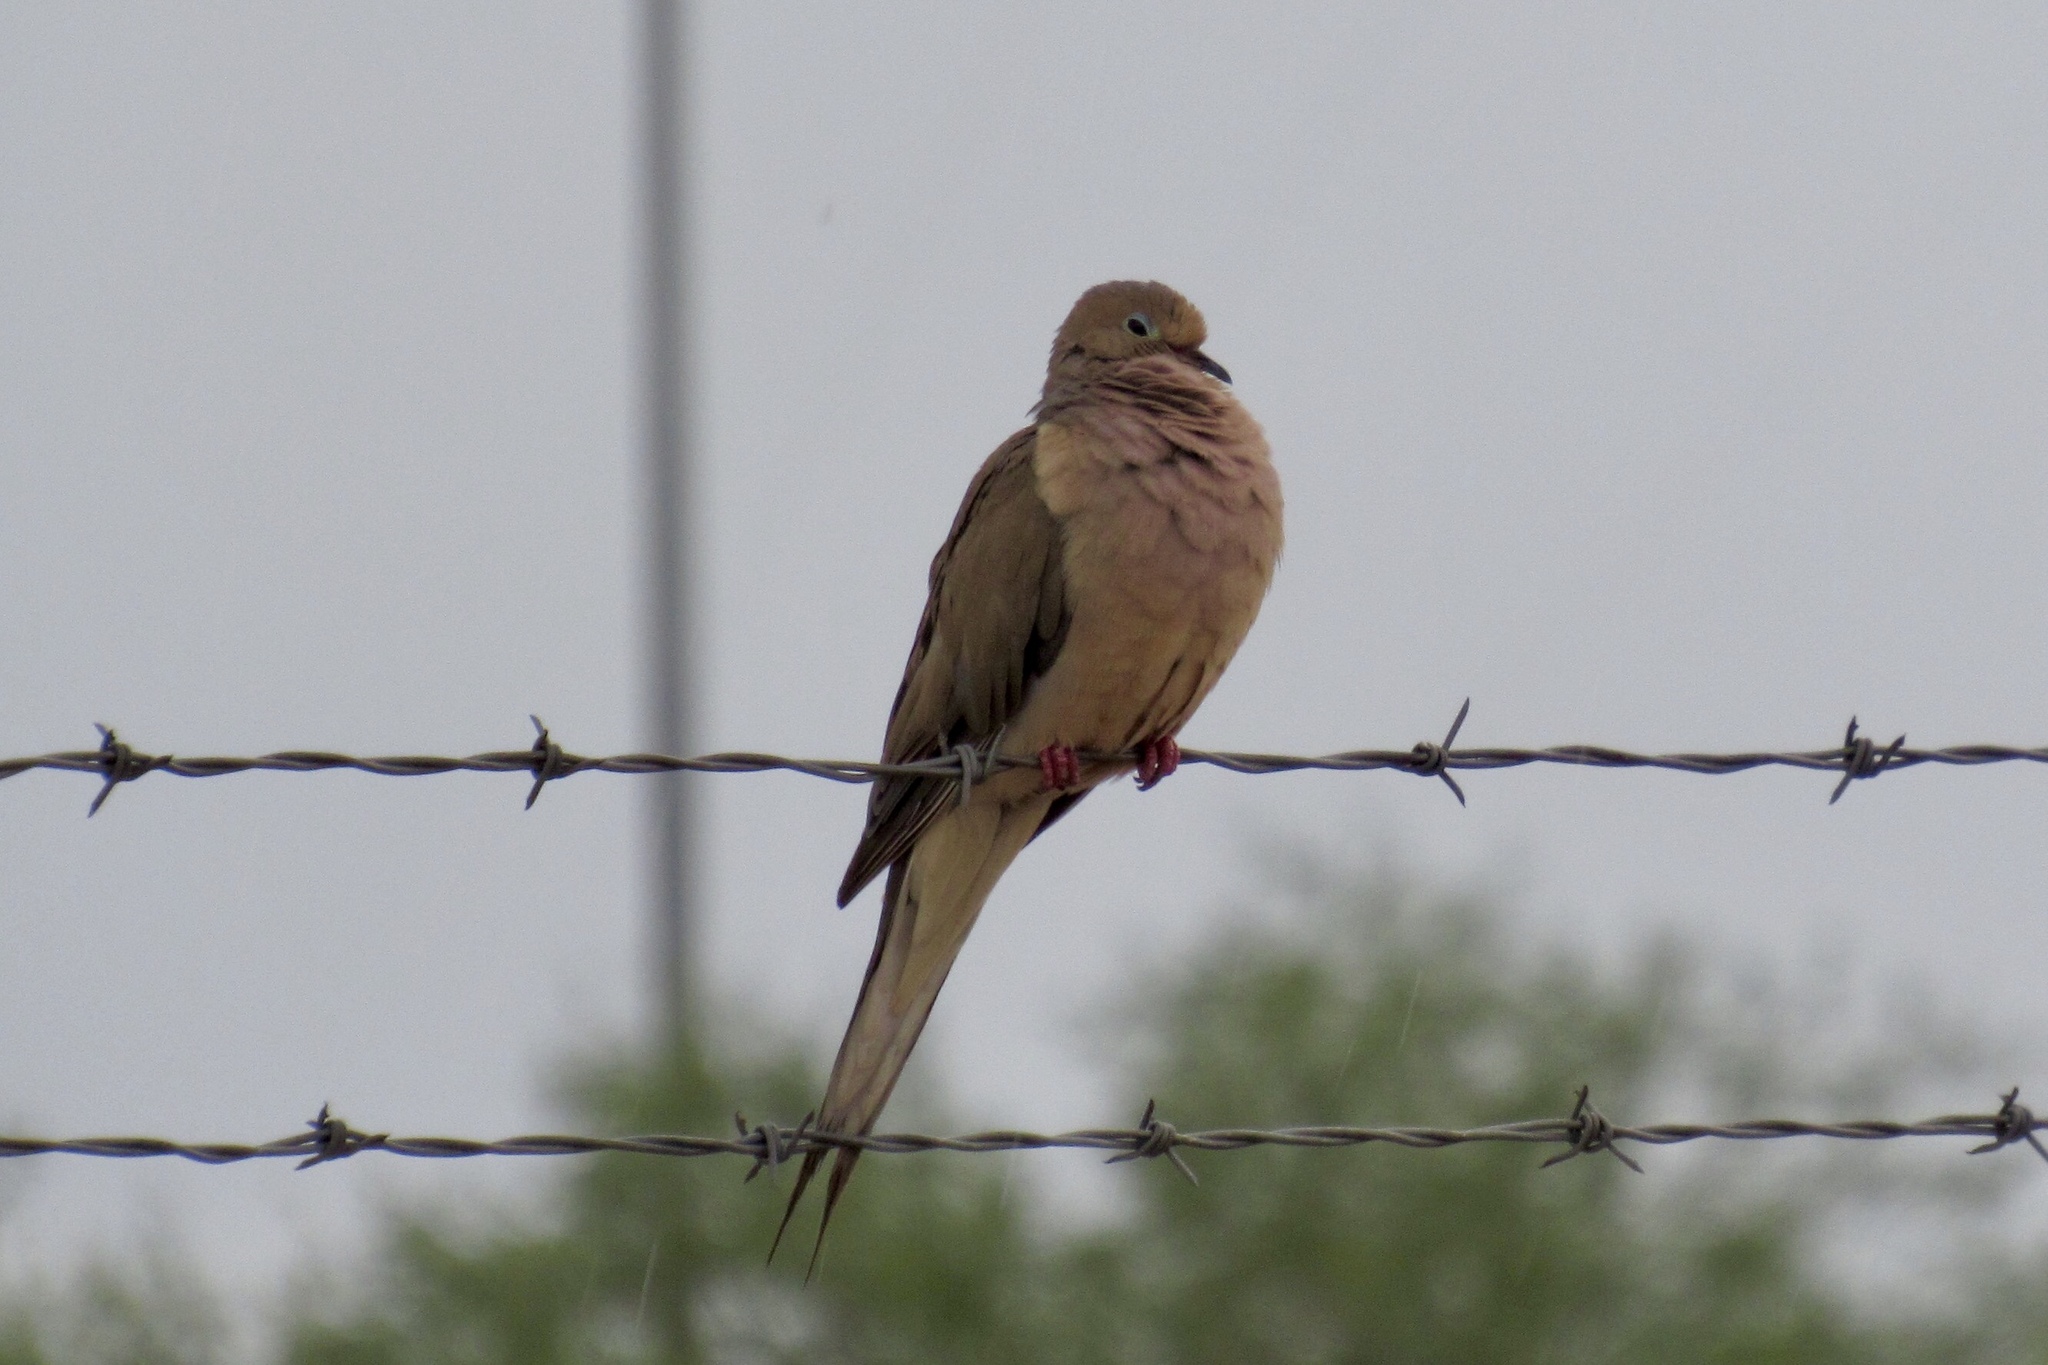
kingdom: Animalia
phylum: Chordata
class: Aves
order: Columbiformes
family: Columbidae
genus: Zenaida
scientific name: Zenaida macroura
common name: Mourning dove
